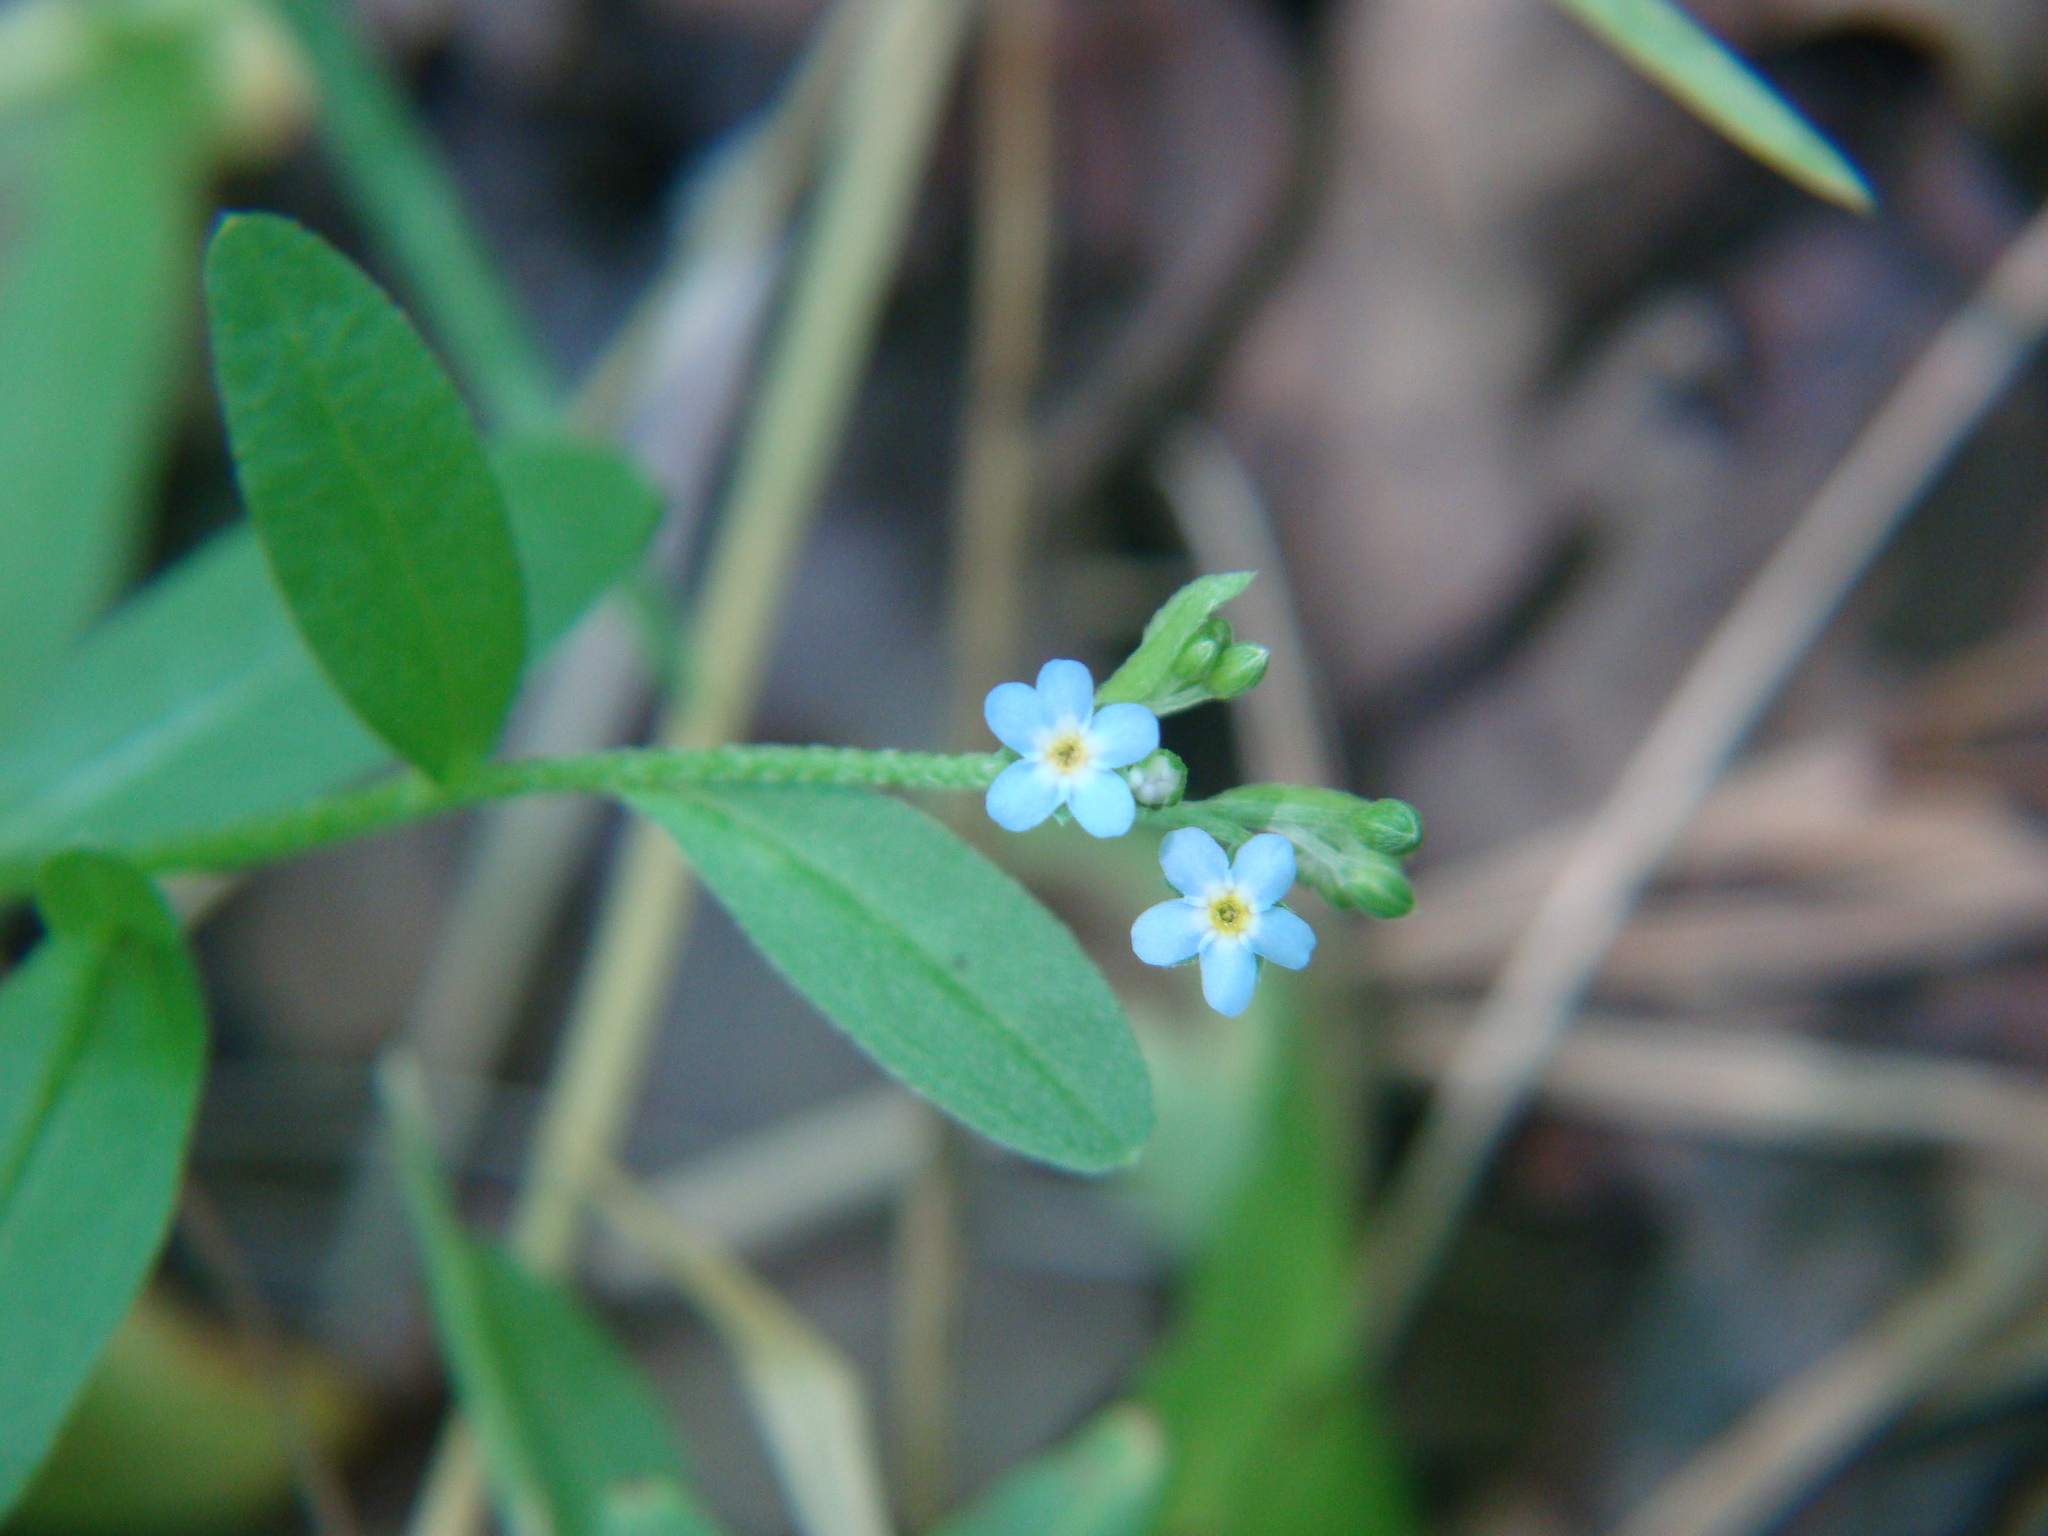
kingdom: Plantae
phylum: Tracheophyta
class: Magnoliopsida
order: Boraginales
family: Boraginaceae
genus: Myosotis
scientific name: Myosotis laxa
